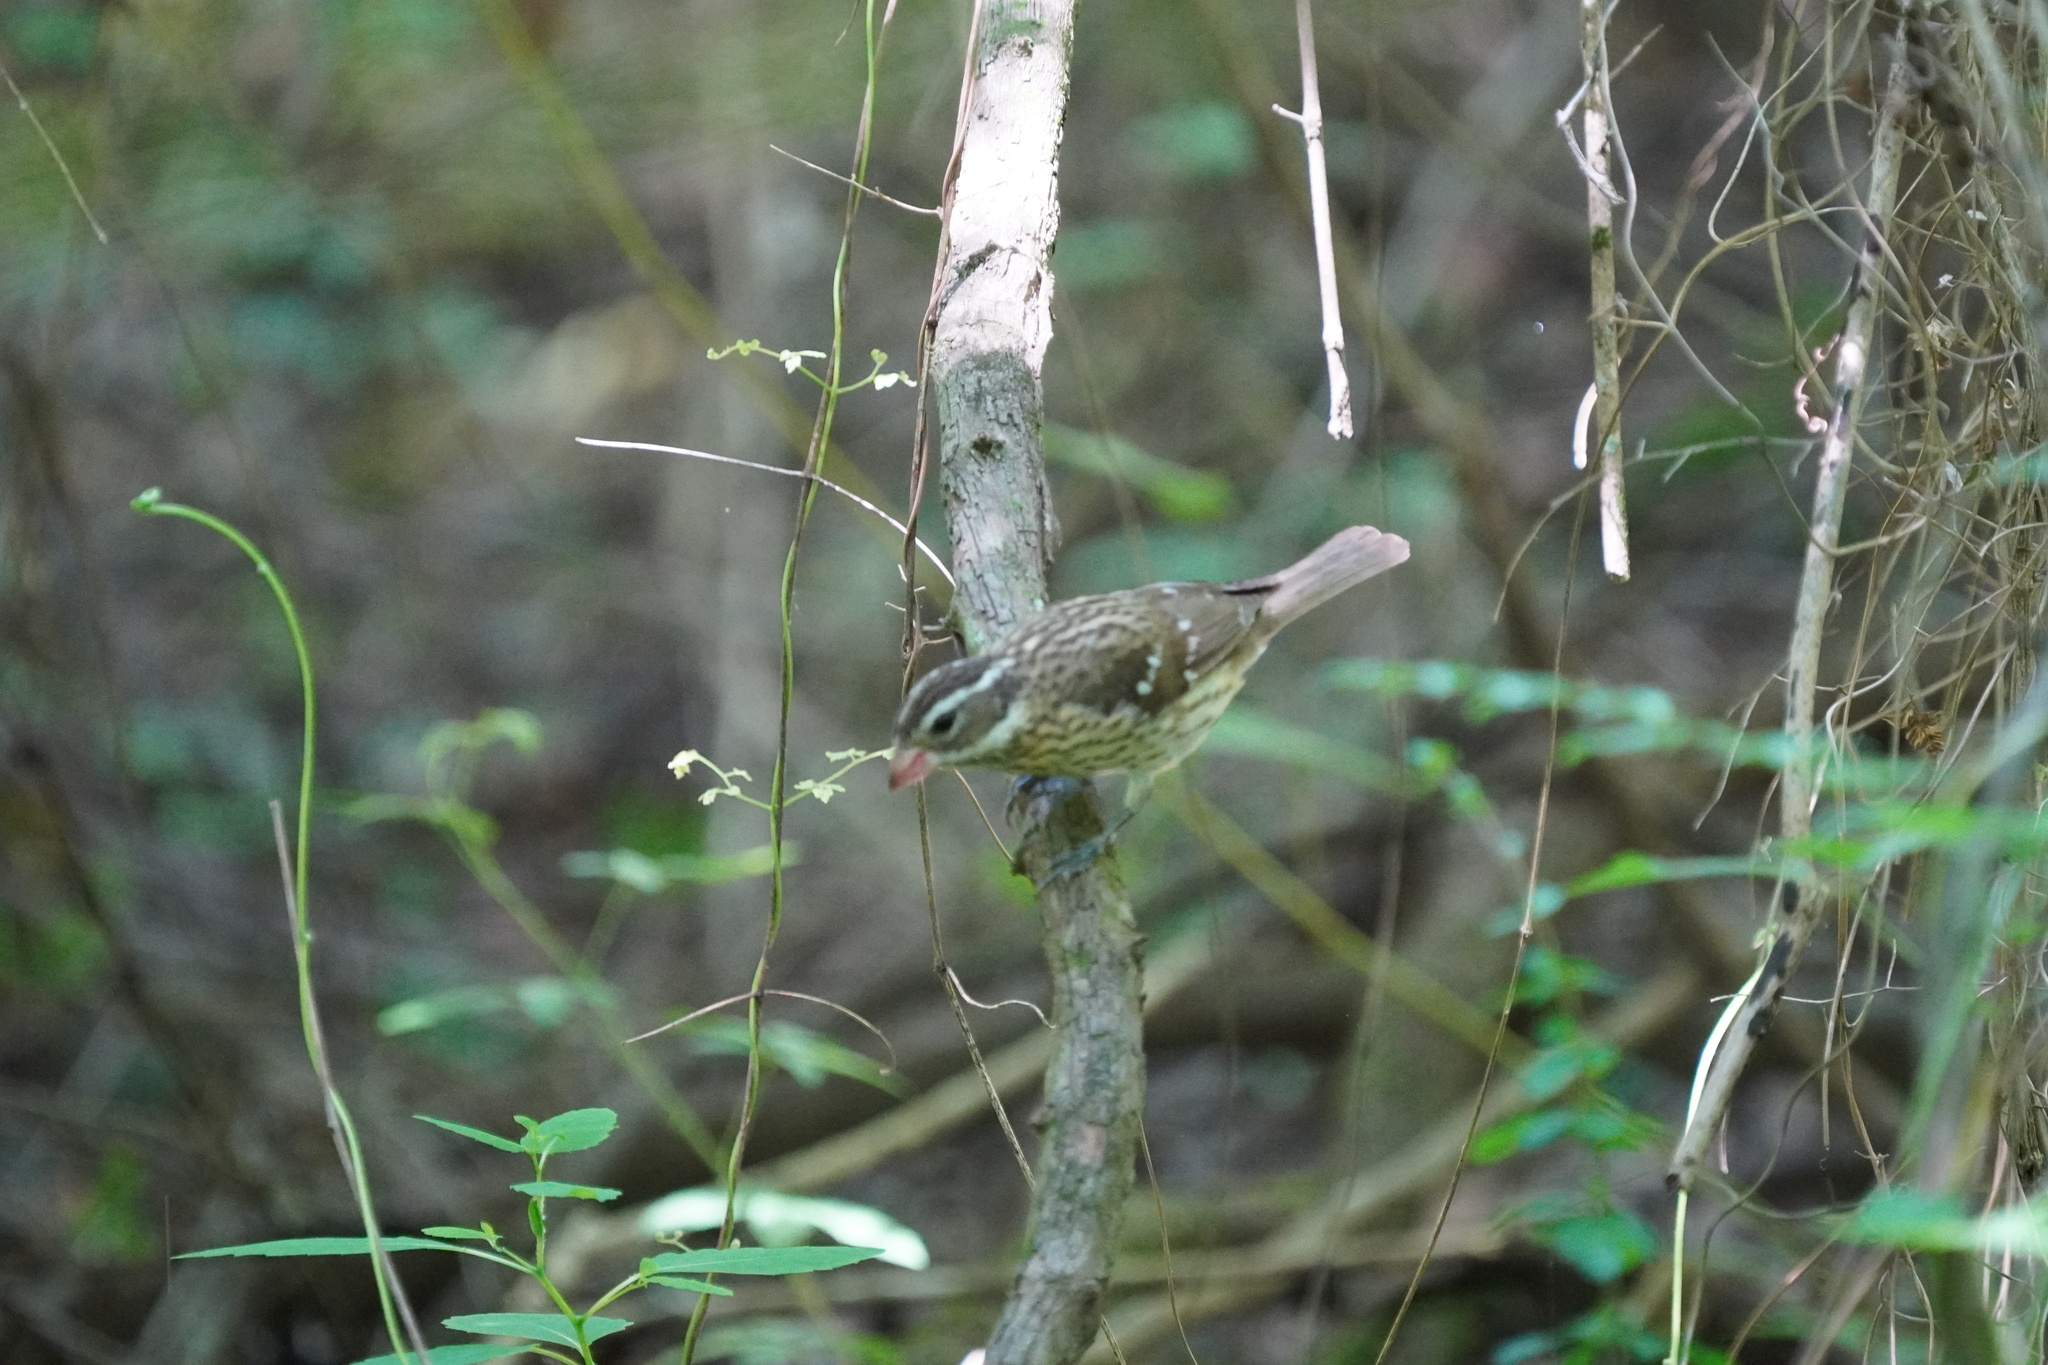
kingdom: Animalia
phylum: Chordata
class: Aves
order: Passeriformes
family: Cardinalidae
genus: Pheucticus
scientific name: Pheucticus ludovicianus
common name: Rose-breasted grosbeak
